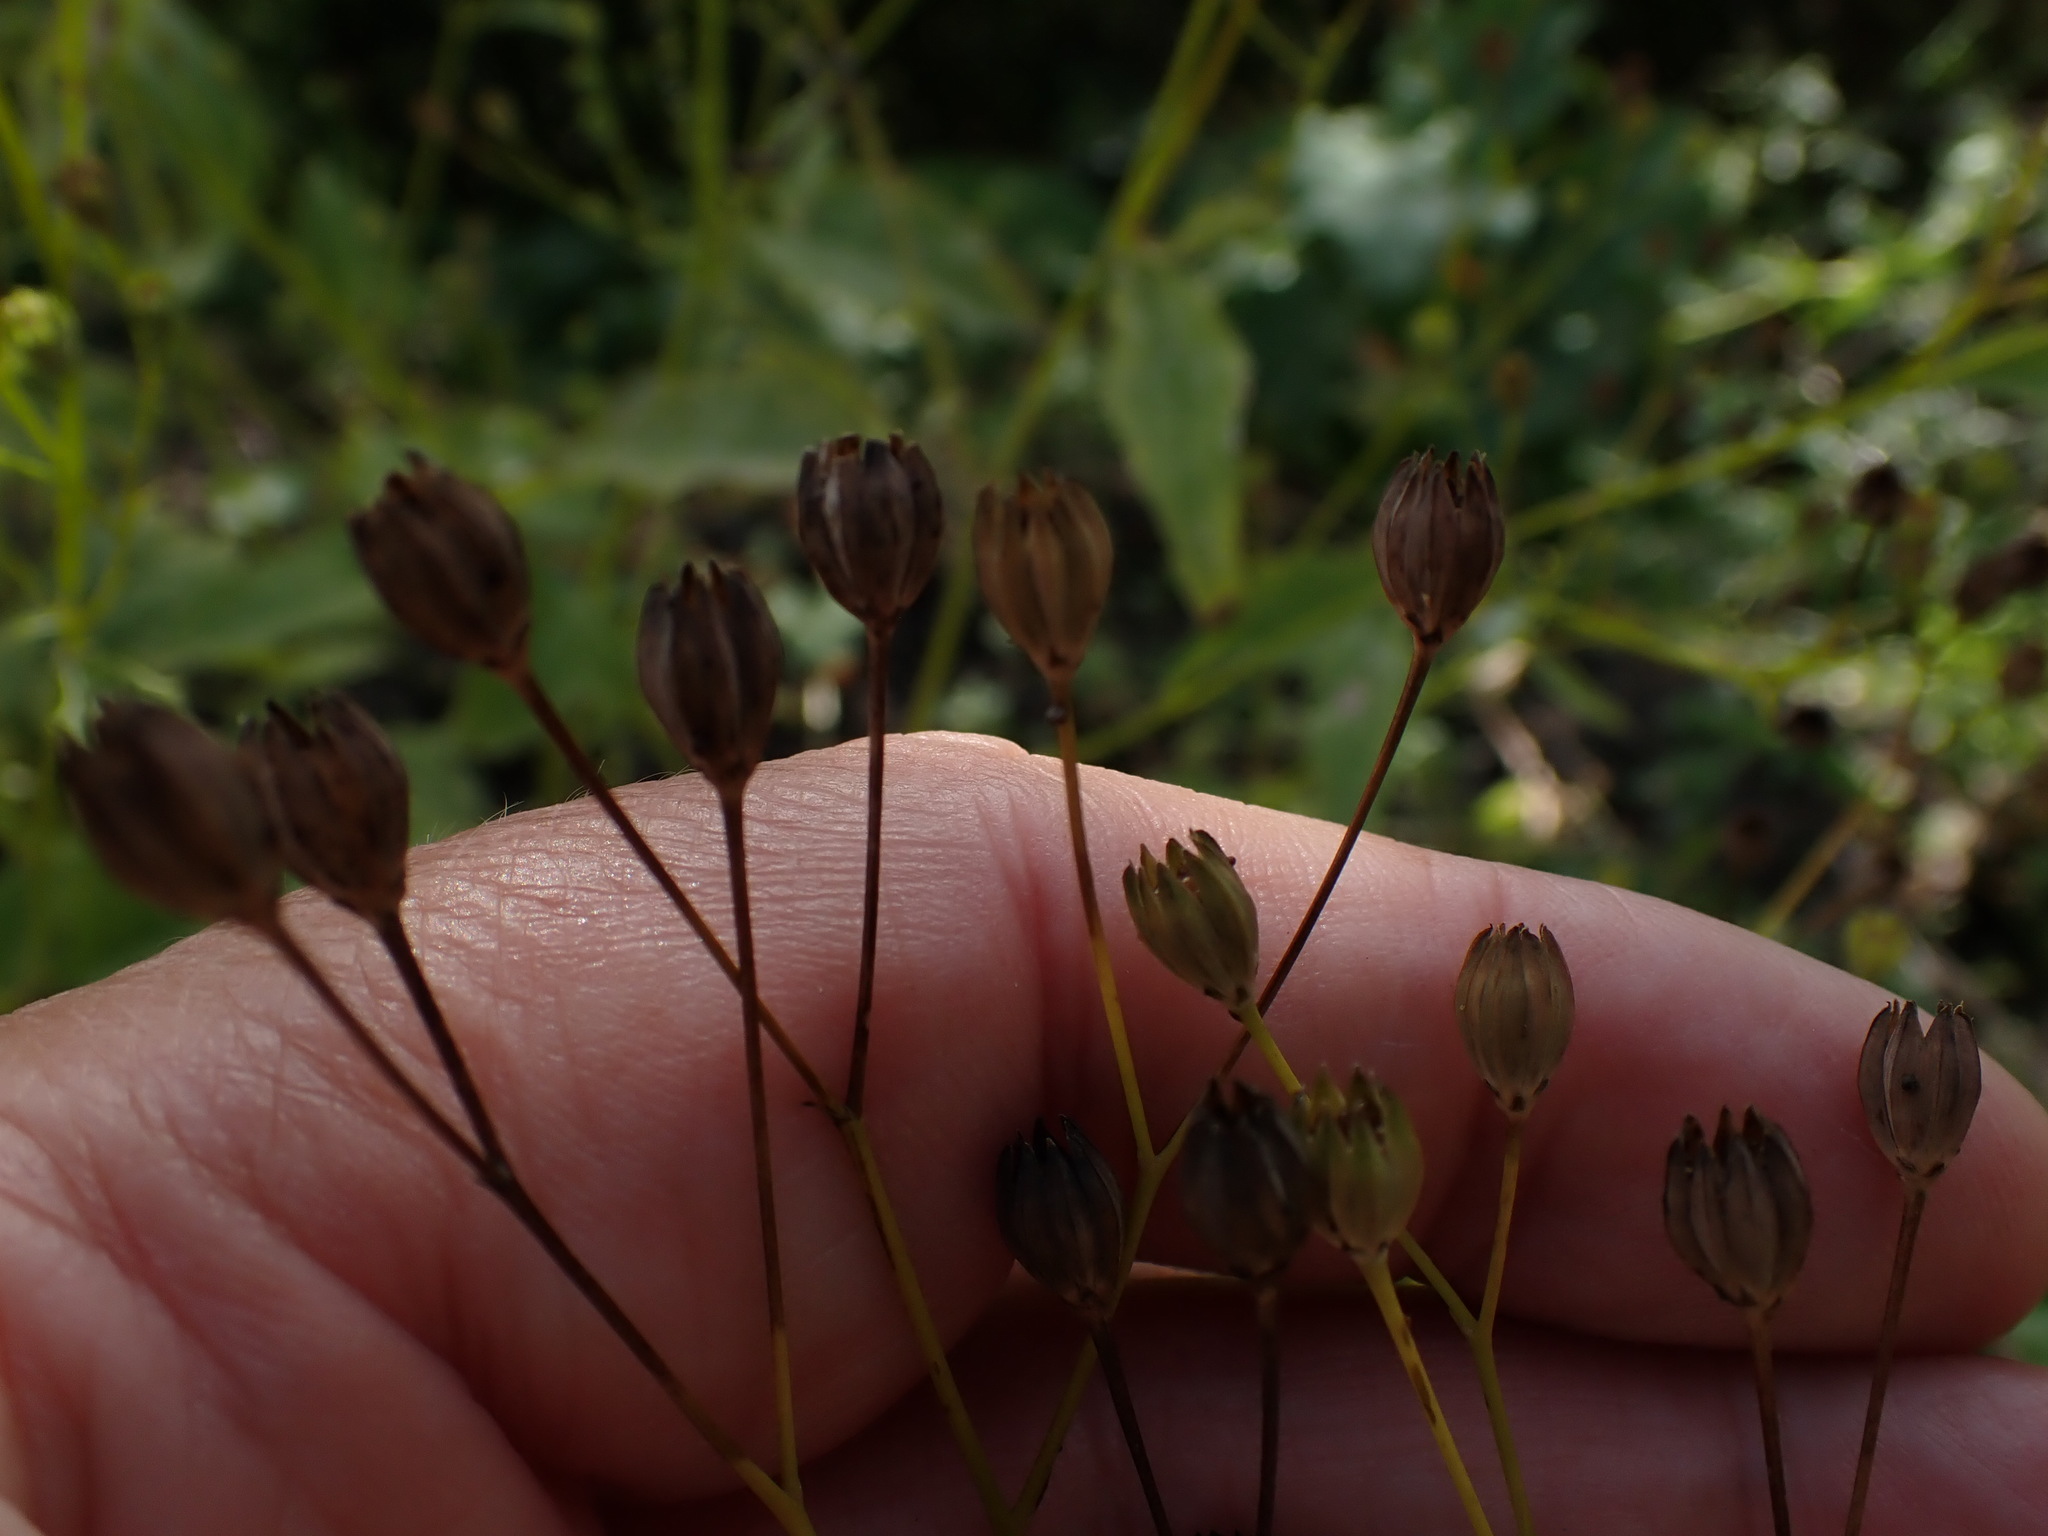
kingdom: Plantae
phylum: Tracheophyta
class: Magnoliopsida
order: Asterales
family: Asteraceae
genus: Lapsana
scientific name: Lapsana communis
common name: Nipplewort
